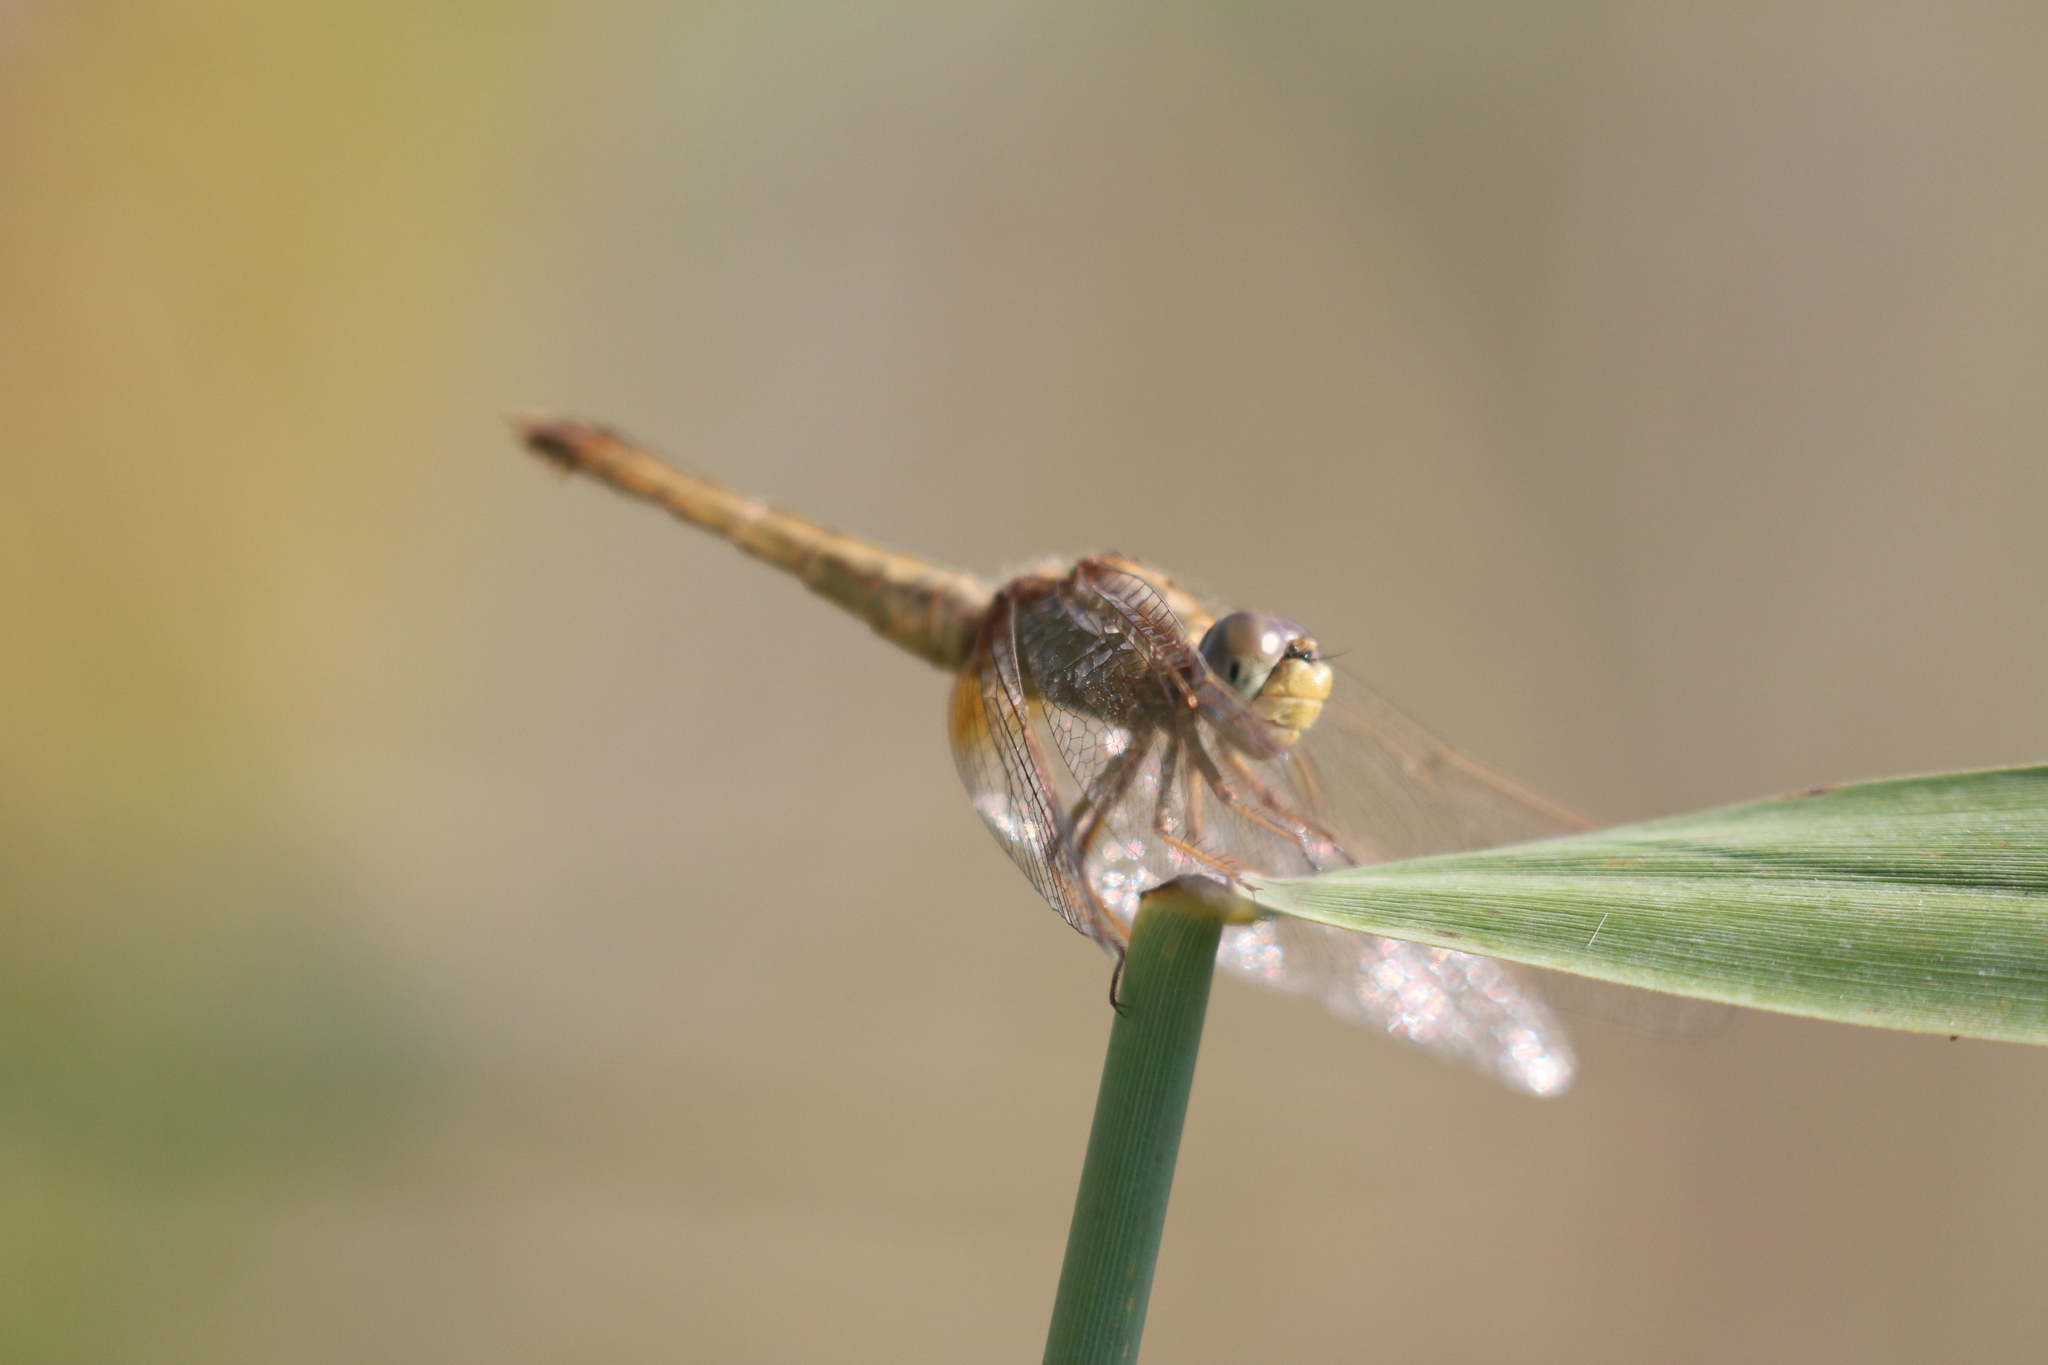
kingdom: Animalia
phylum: Arthropoda
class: Insecta
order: Odonata
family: Libellulidae
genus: Crocothemis
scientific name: Crocothemis erythraea
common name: Scarlet dragonfly
